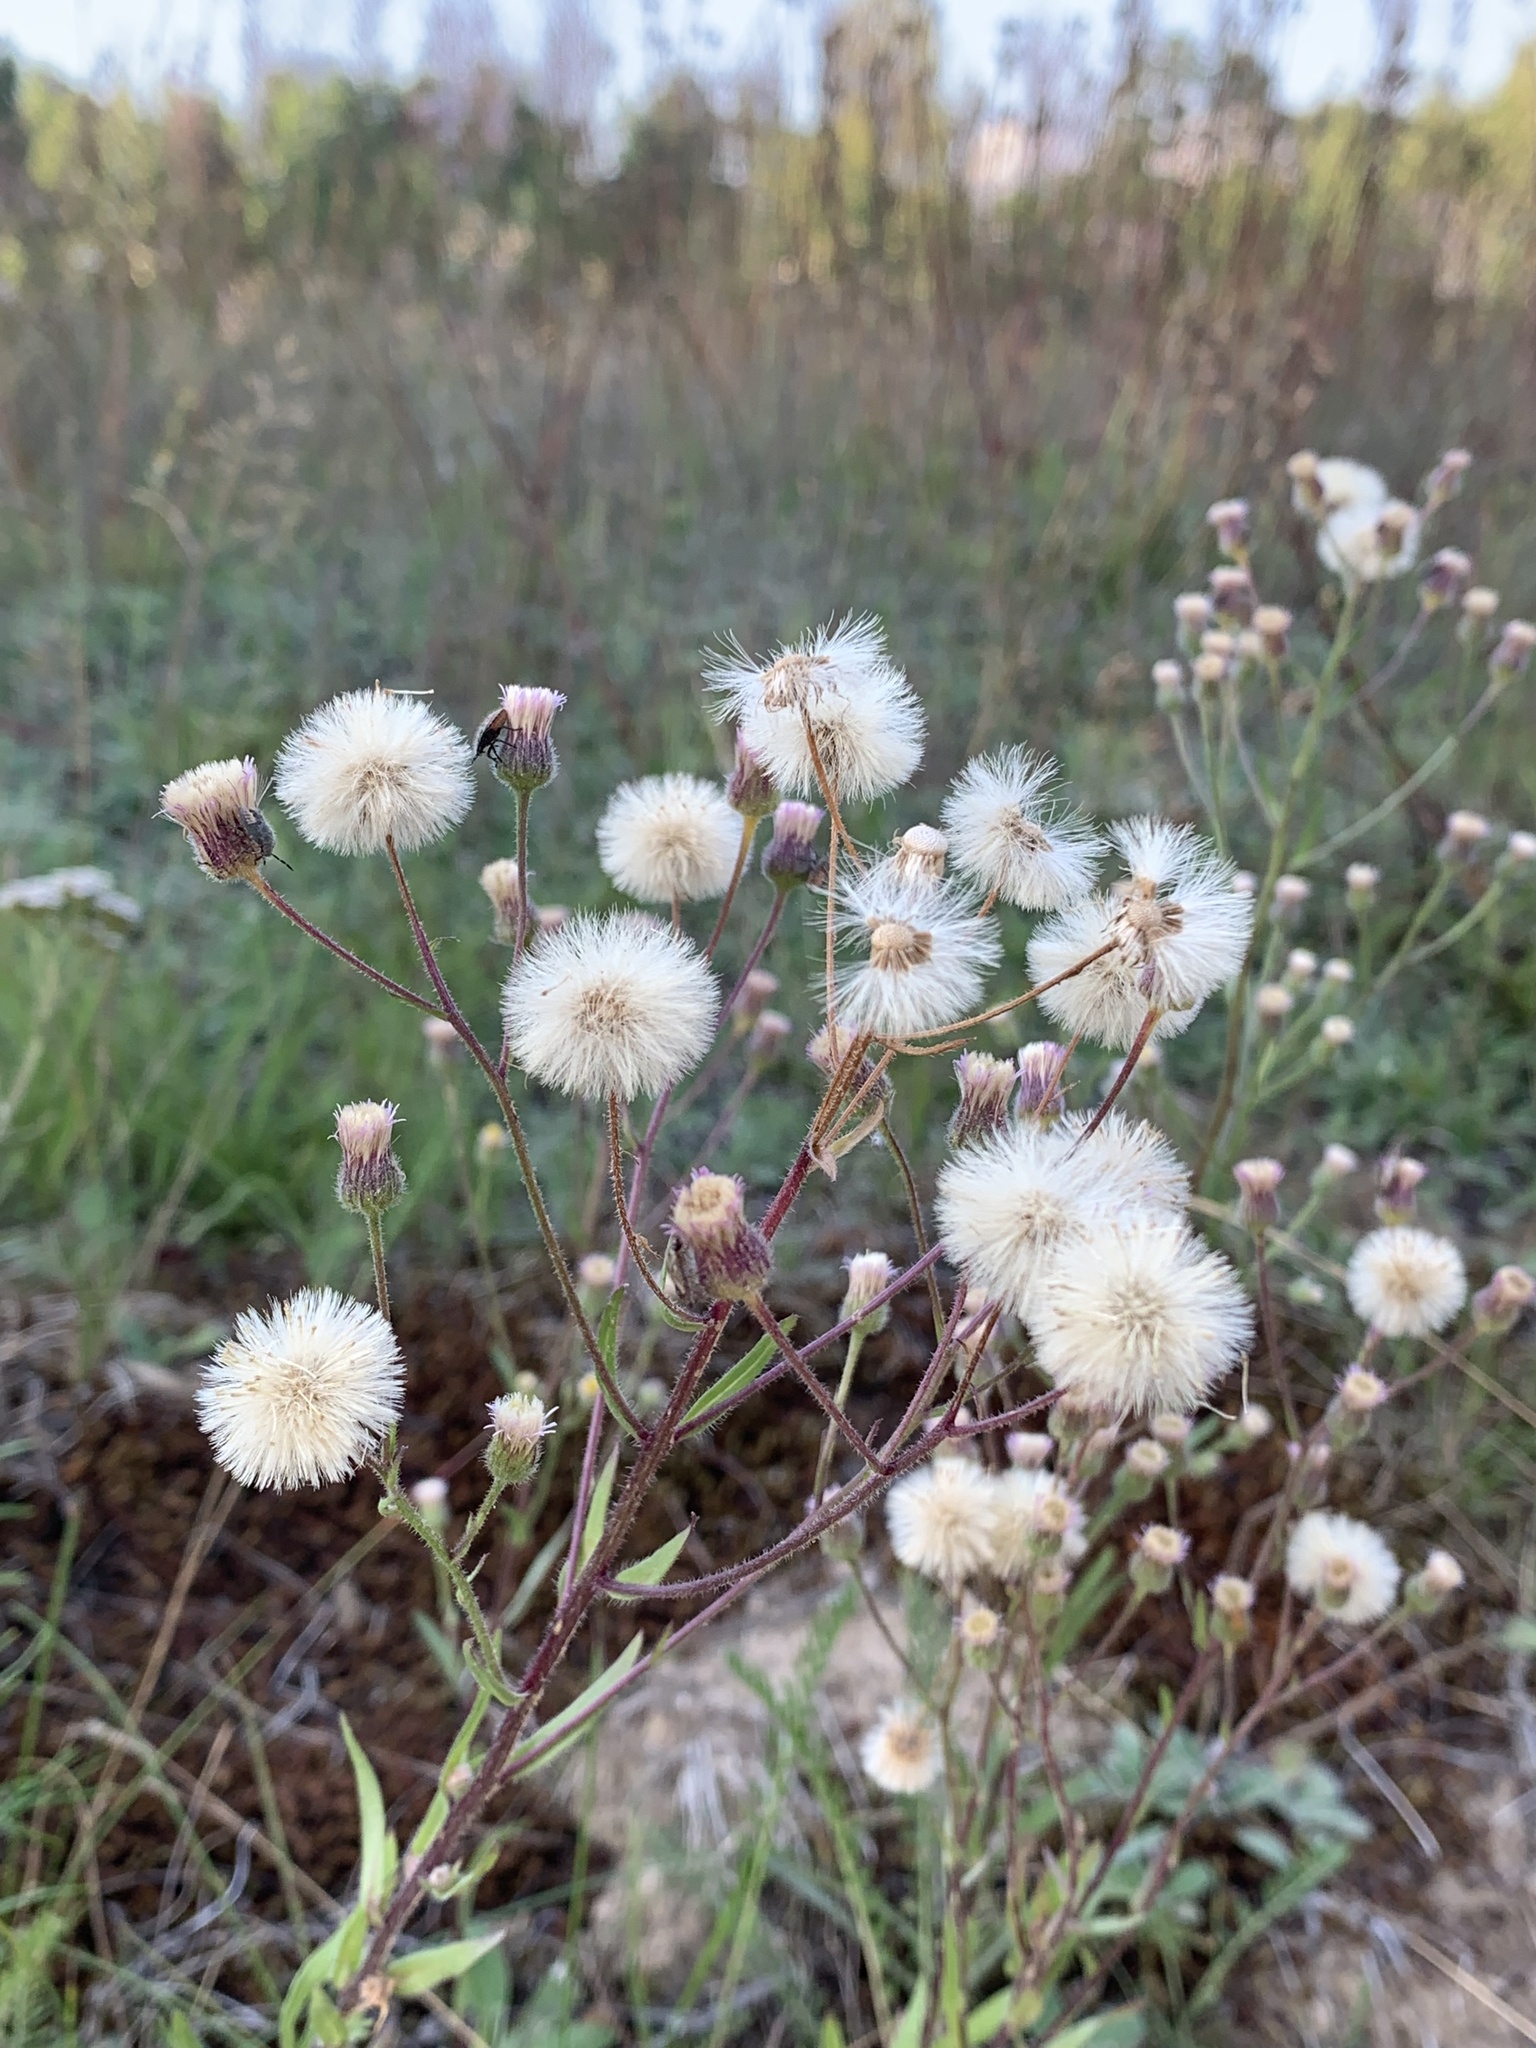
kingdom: Plantae
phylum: Tracheophyta
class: Magnoliopsida
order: Asterales
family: Asteraceae
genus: Erigeron
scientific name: Erigeron acris
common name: Blue fleabane
